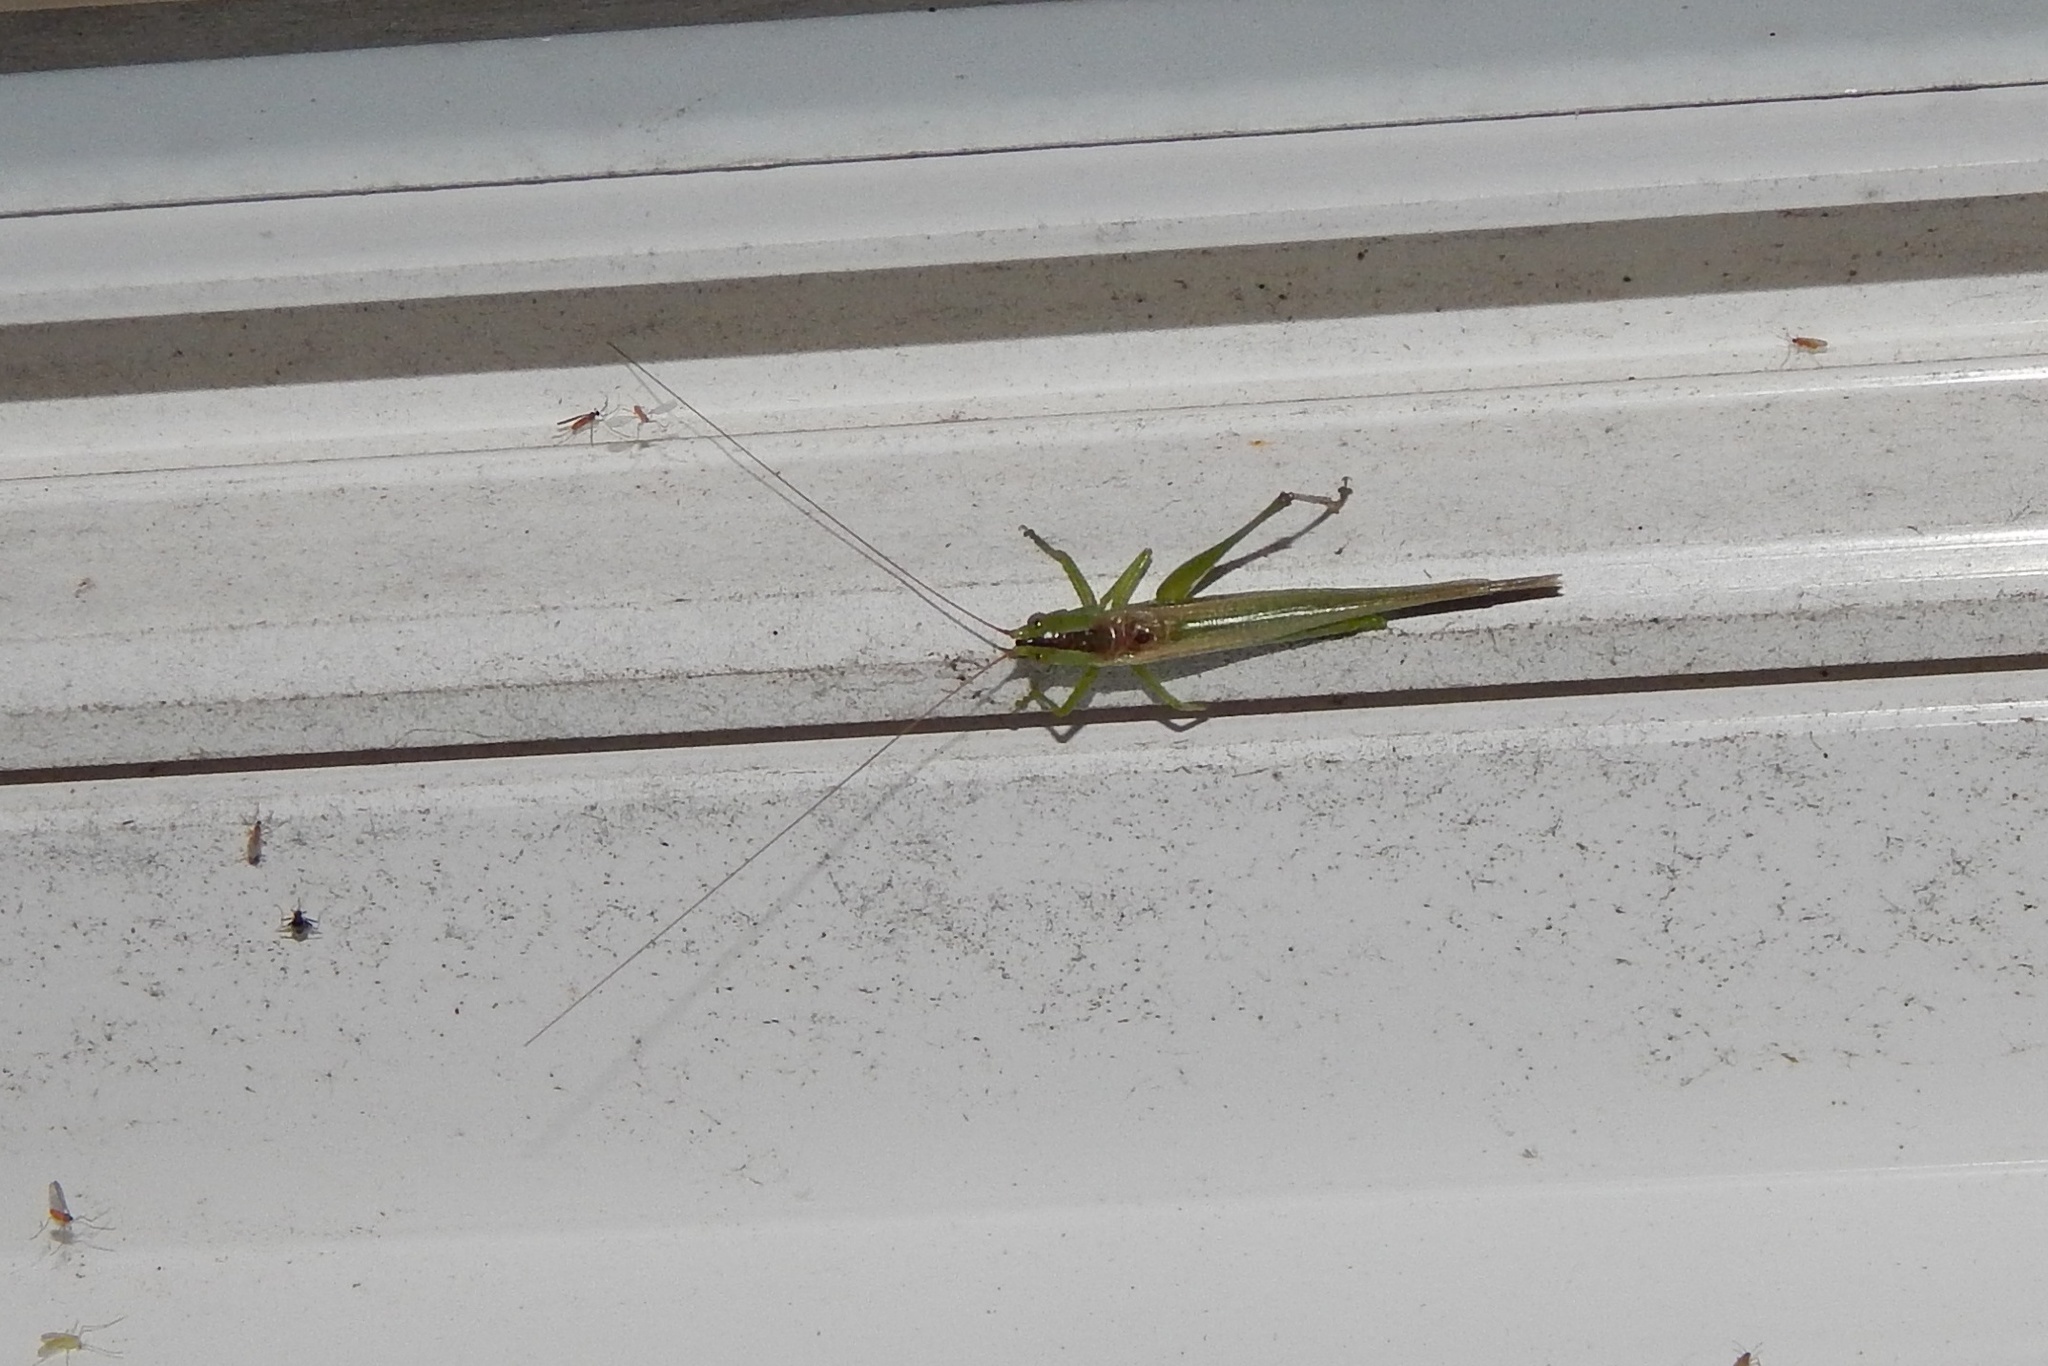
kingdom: Animalia
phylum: Arthropoda
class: Insecta
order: Orthoptera
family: Tettigoniidae
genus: Conocephalus
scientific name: Conocephalus fasciatus
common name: Slender meadow katydid
